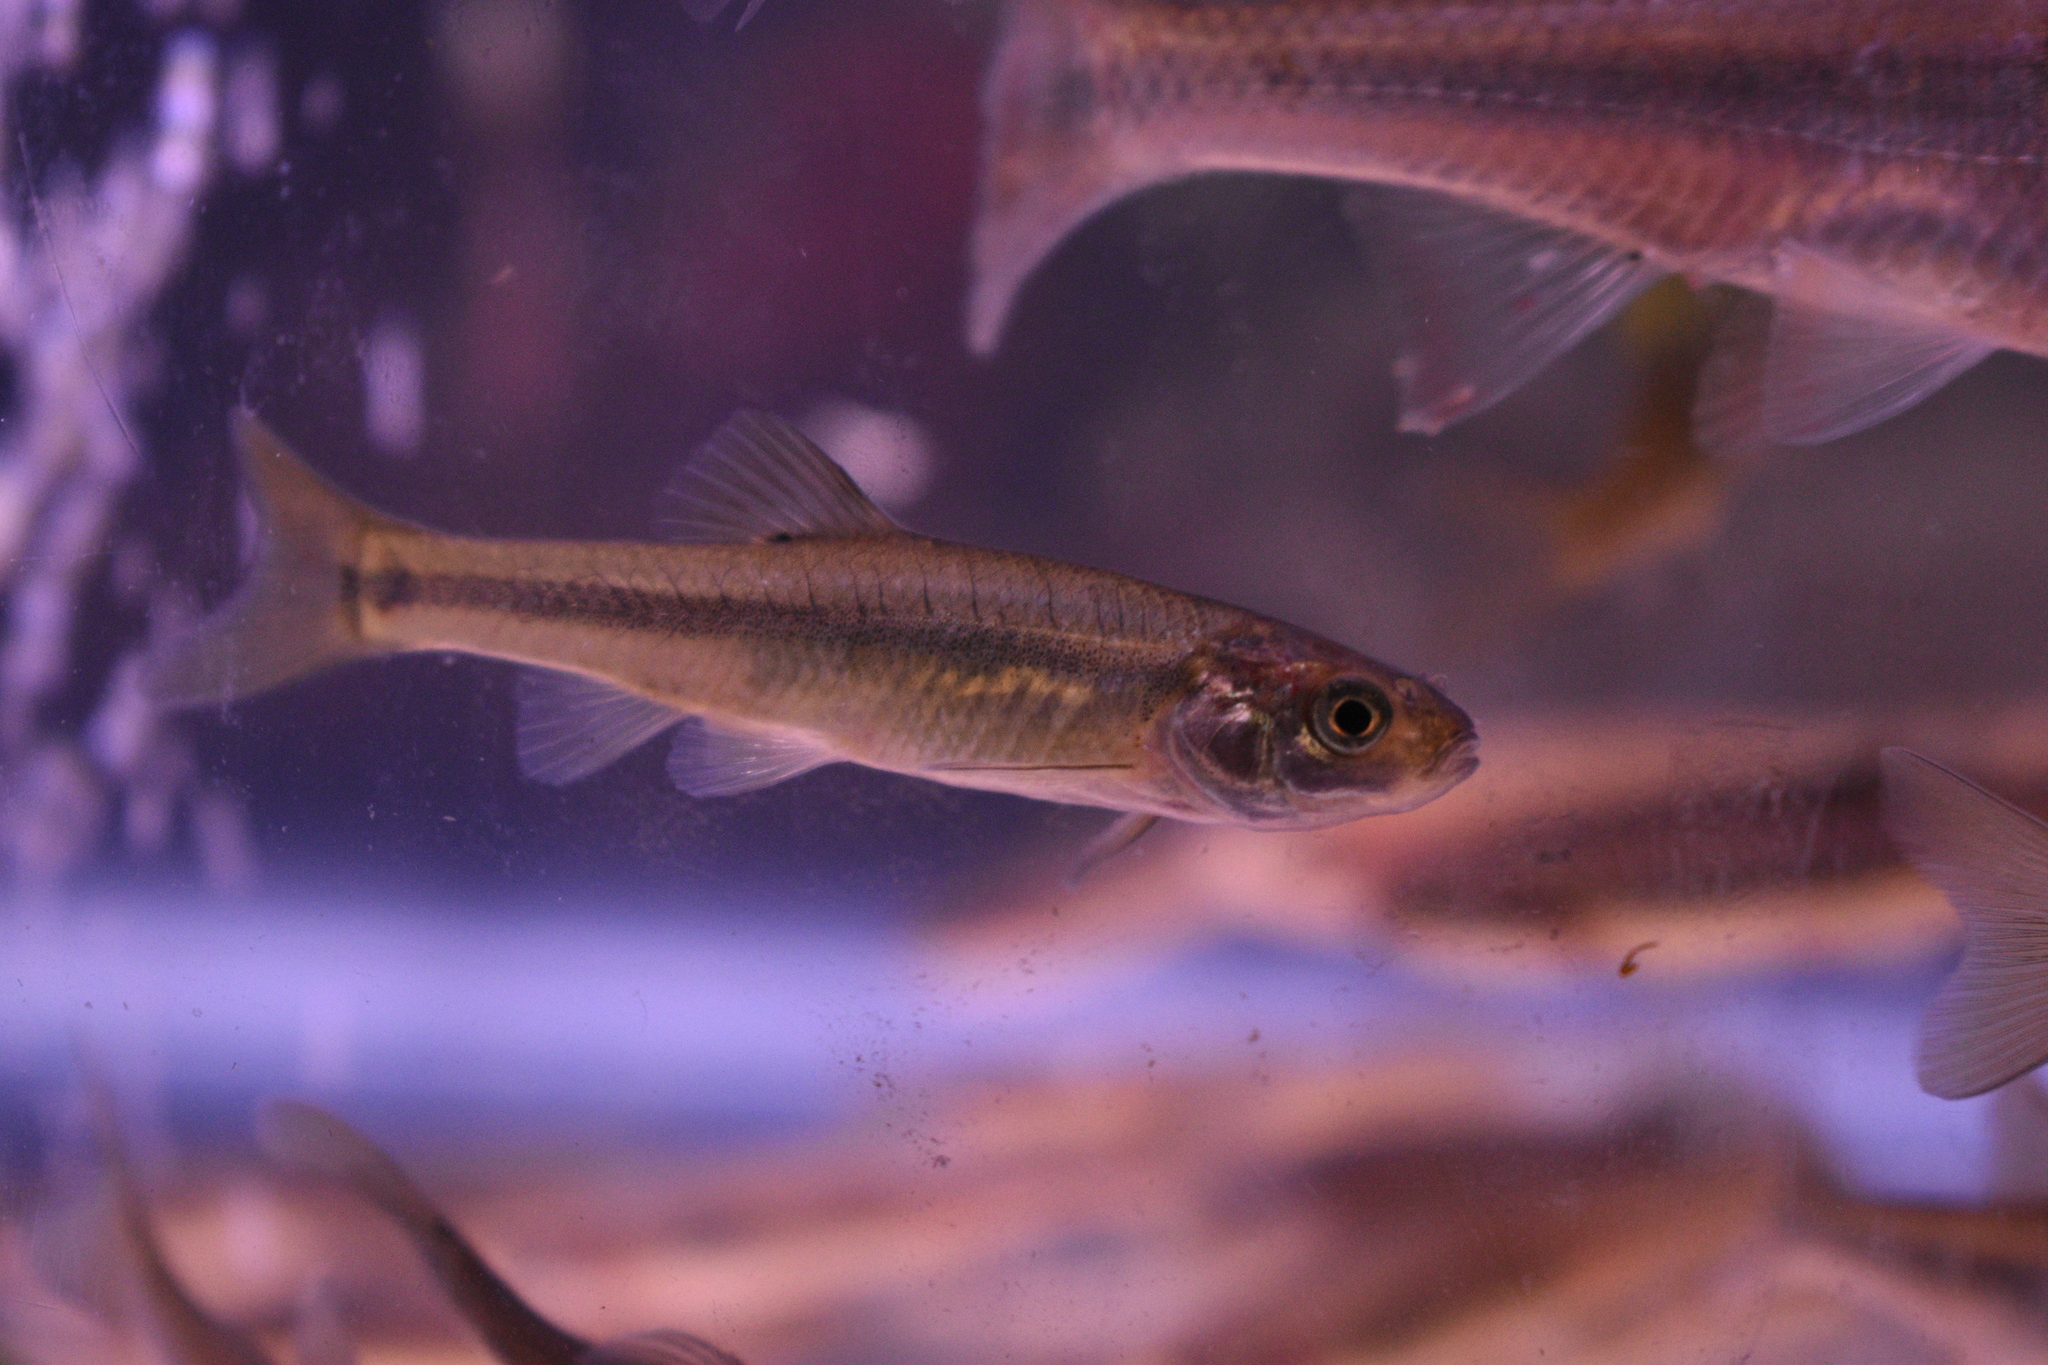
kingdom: Animalia
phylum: Chordata
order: Cypriniformes
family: Cyprinidae
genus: Pimephales
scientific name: Pimephales promelas
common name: Fathead minnow
